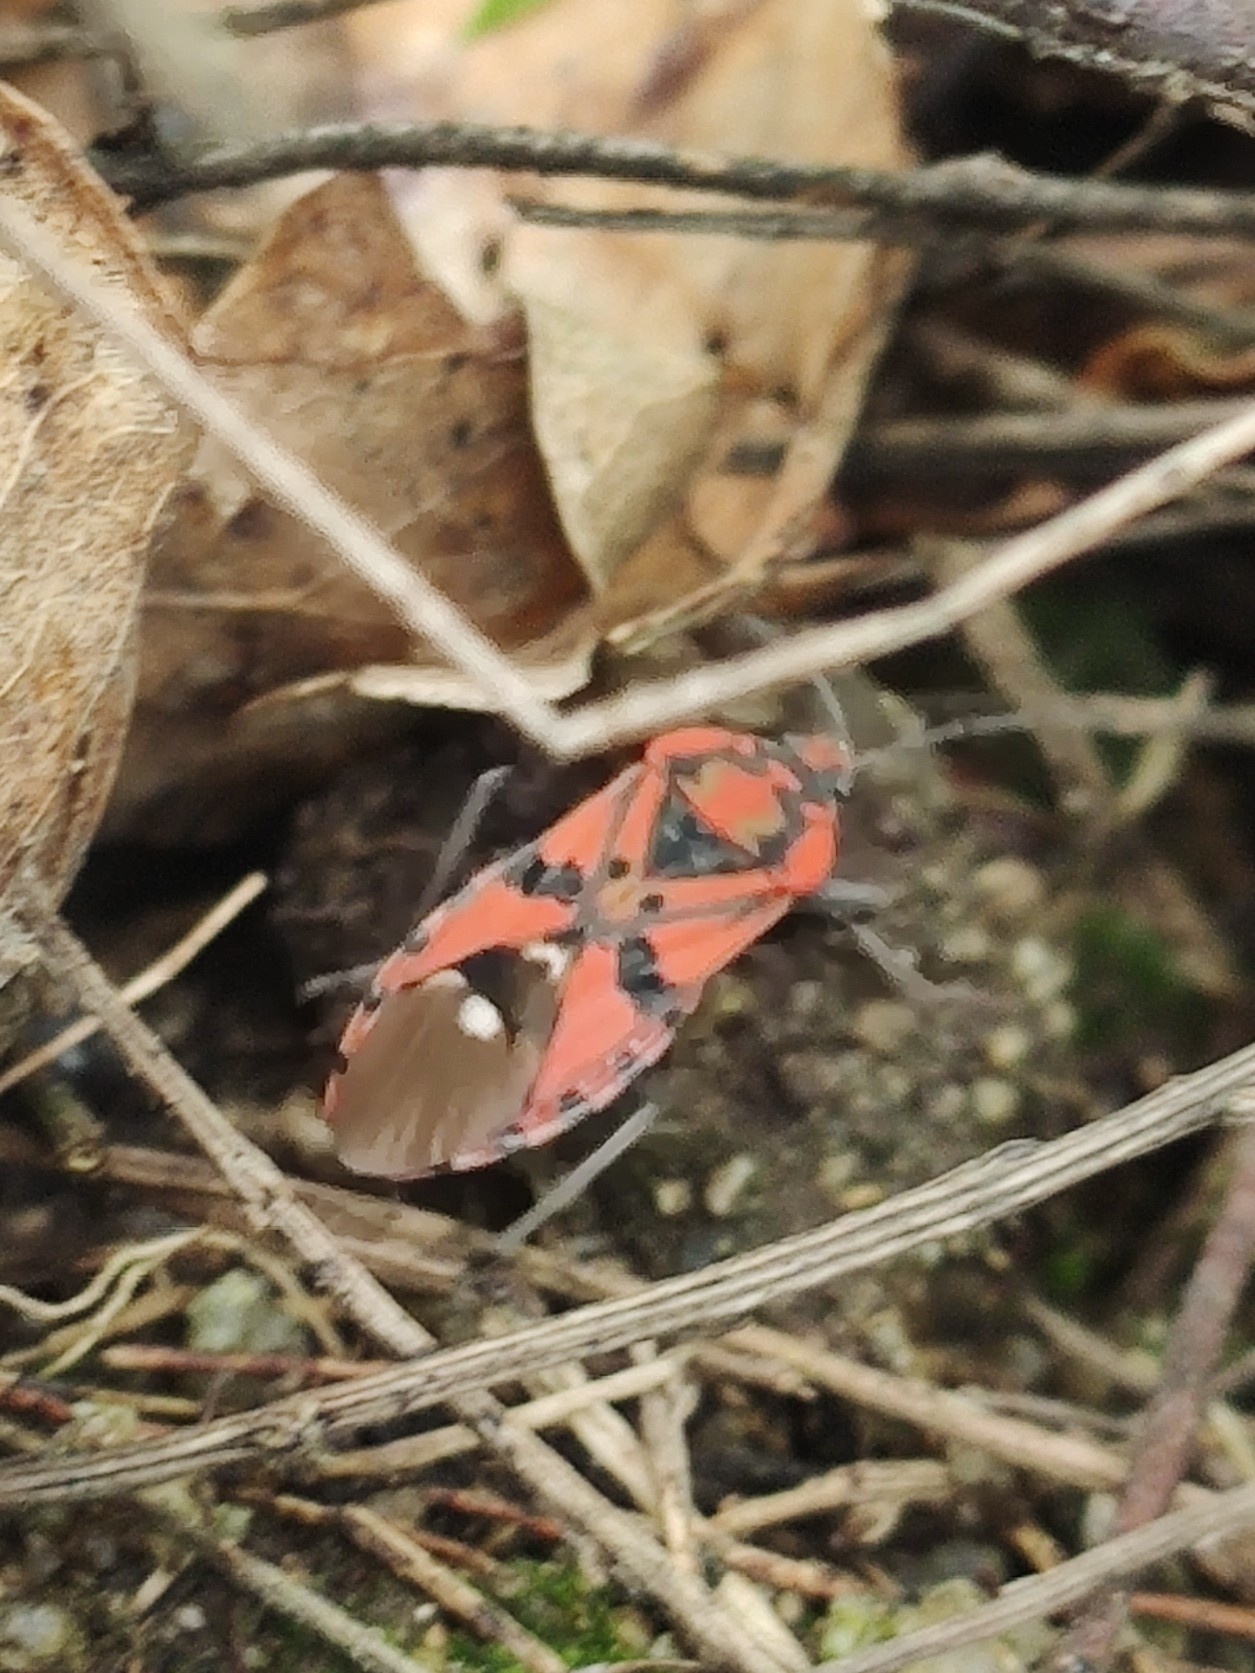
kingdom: Animalia
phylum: Arthropoda
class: Insecta
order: Hemiptera
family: Lygaeidae
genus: Spilostethus
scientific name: Spilostethus pandurus
